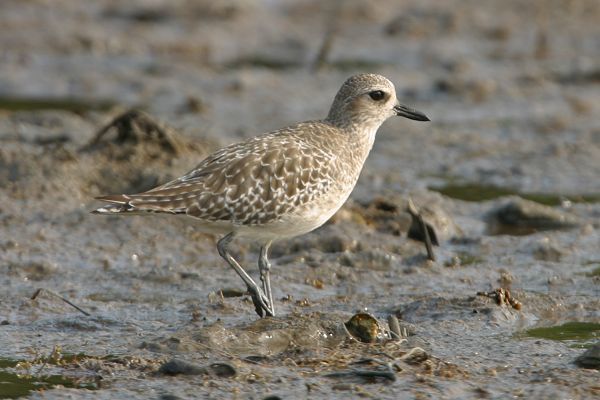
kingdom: Animalia
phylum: Chordata
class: Aves
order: Charadriiformes
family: Charadriidae
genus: Pluvialis
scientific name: Pluvialis squatarola
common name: Grey plover
